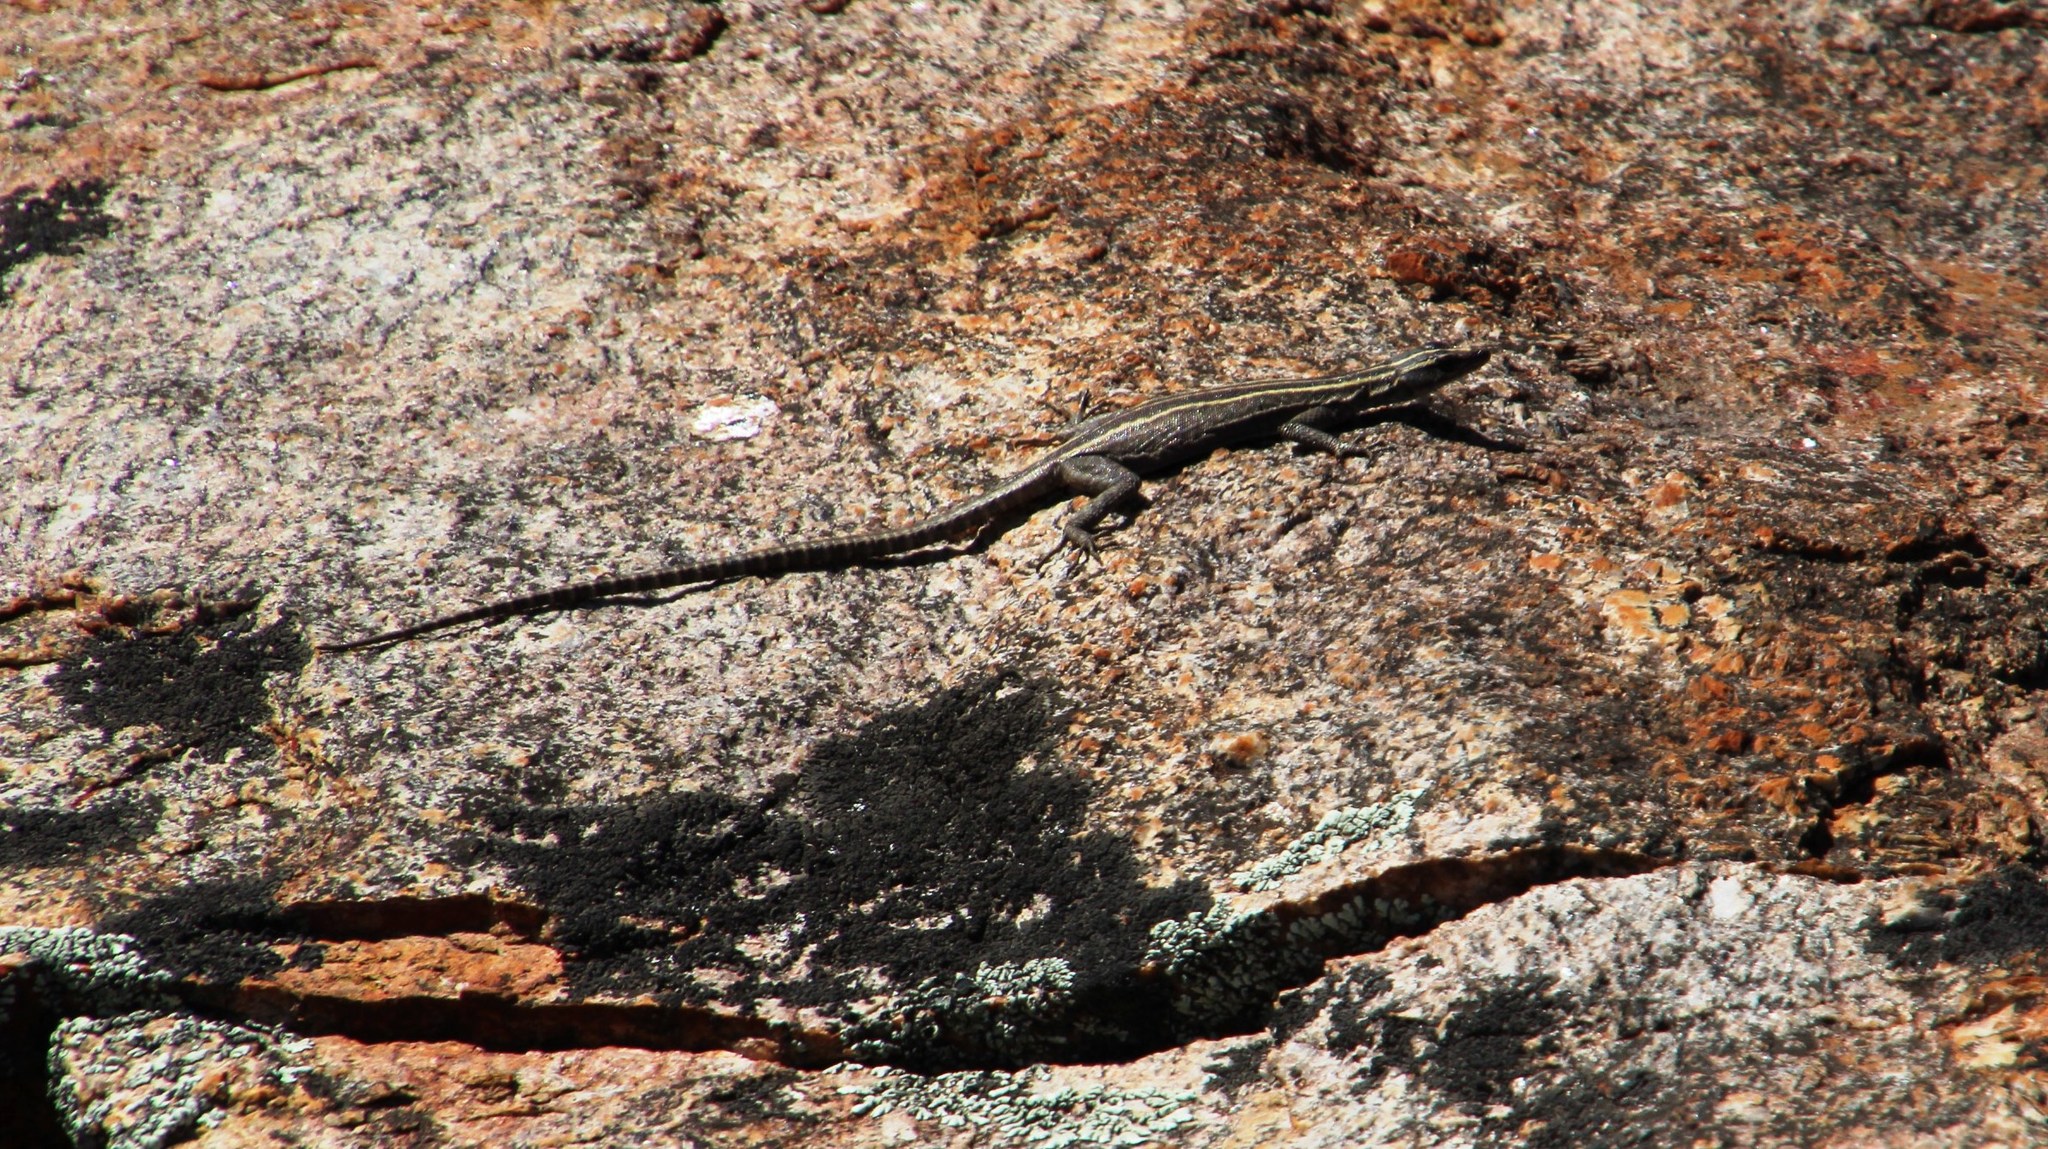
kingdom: Animalia
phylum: Chordata
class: Squamata
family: Cordylidae
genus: Platysaurus
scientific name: Platysaurus capensis
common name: Namaqua flat lizard
